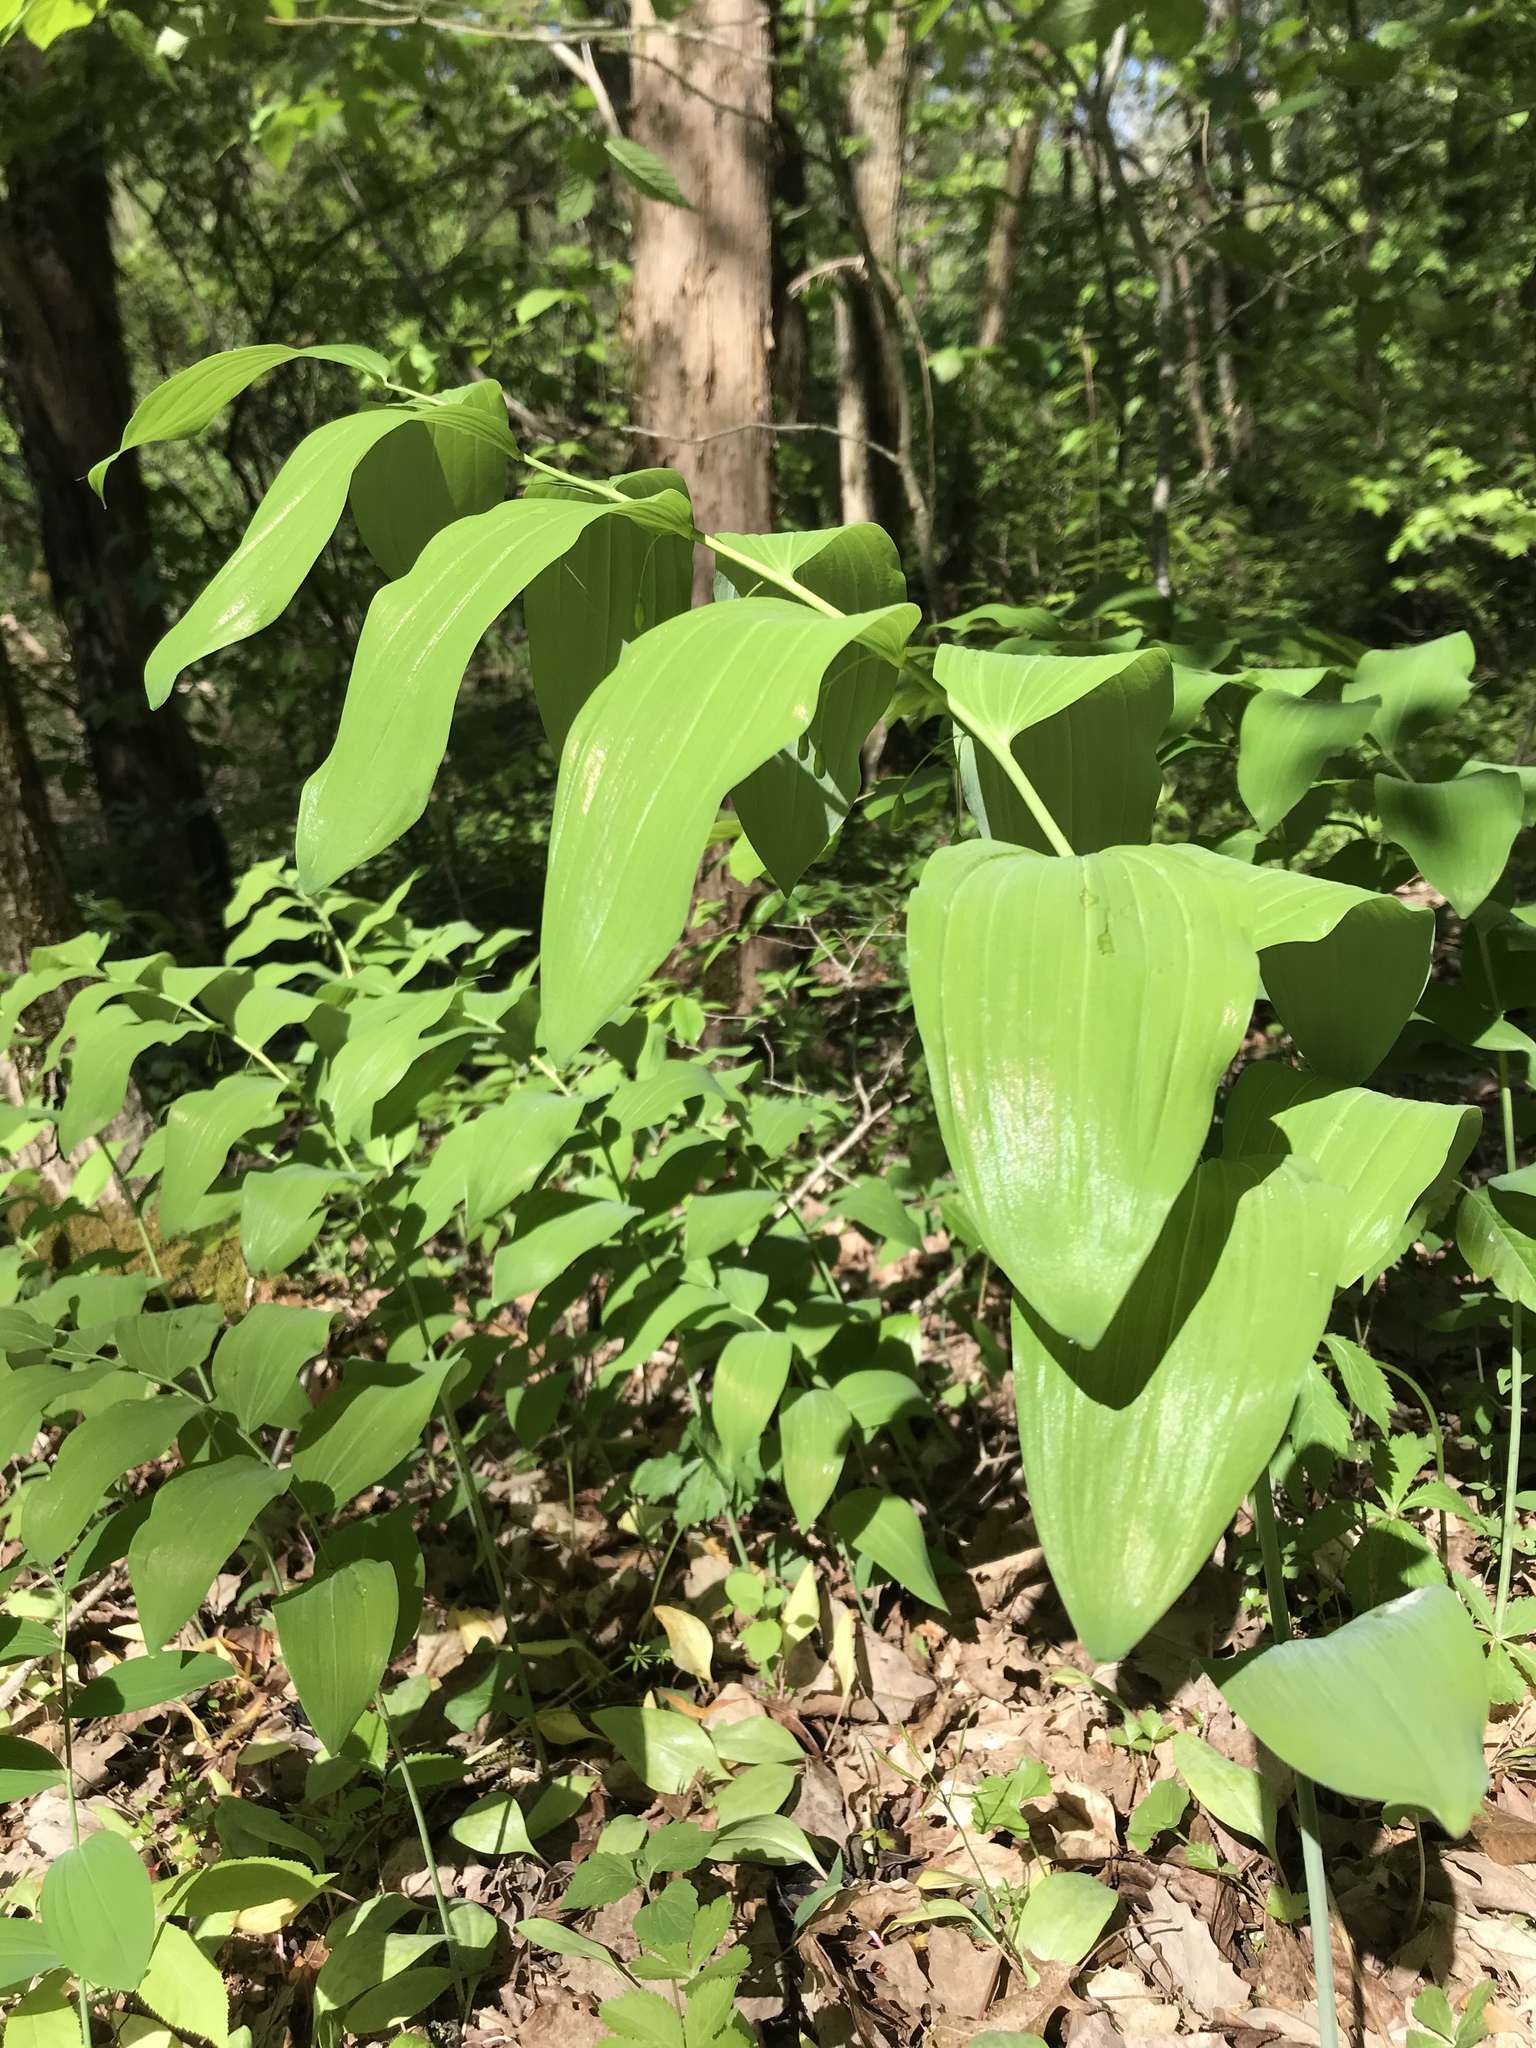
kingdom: Plantae
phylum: Tracheophyta
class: Liliopsida
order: Asparagales
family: Asparagaceae
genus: Polygonatum
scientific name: Polygonatum biflorum
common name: American solomon's-seal
